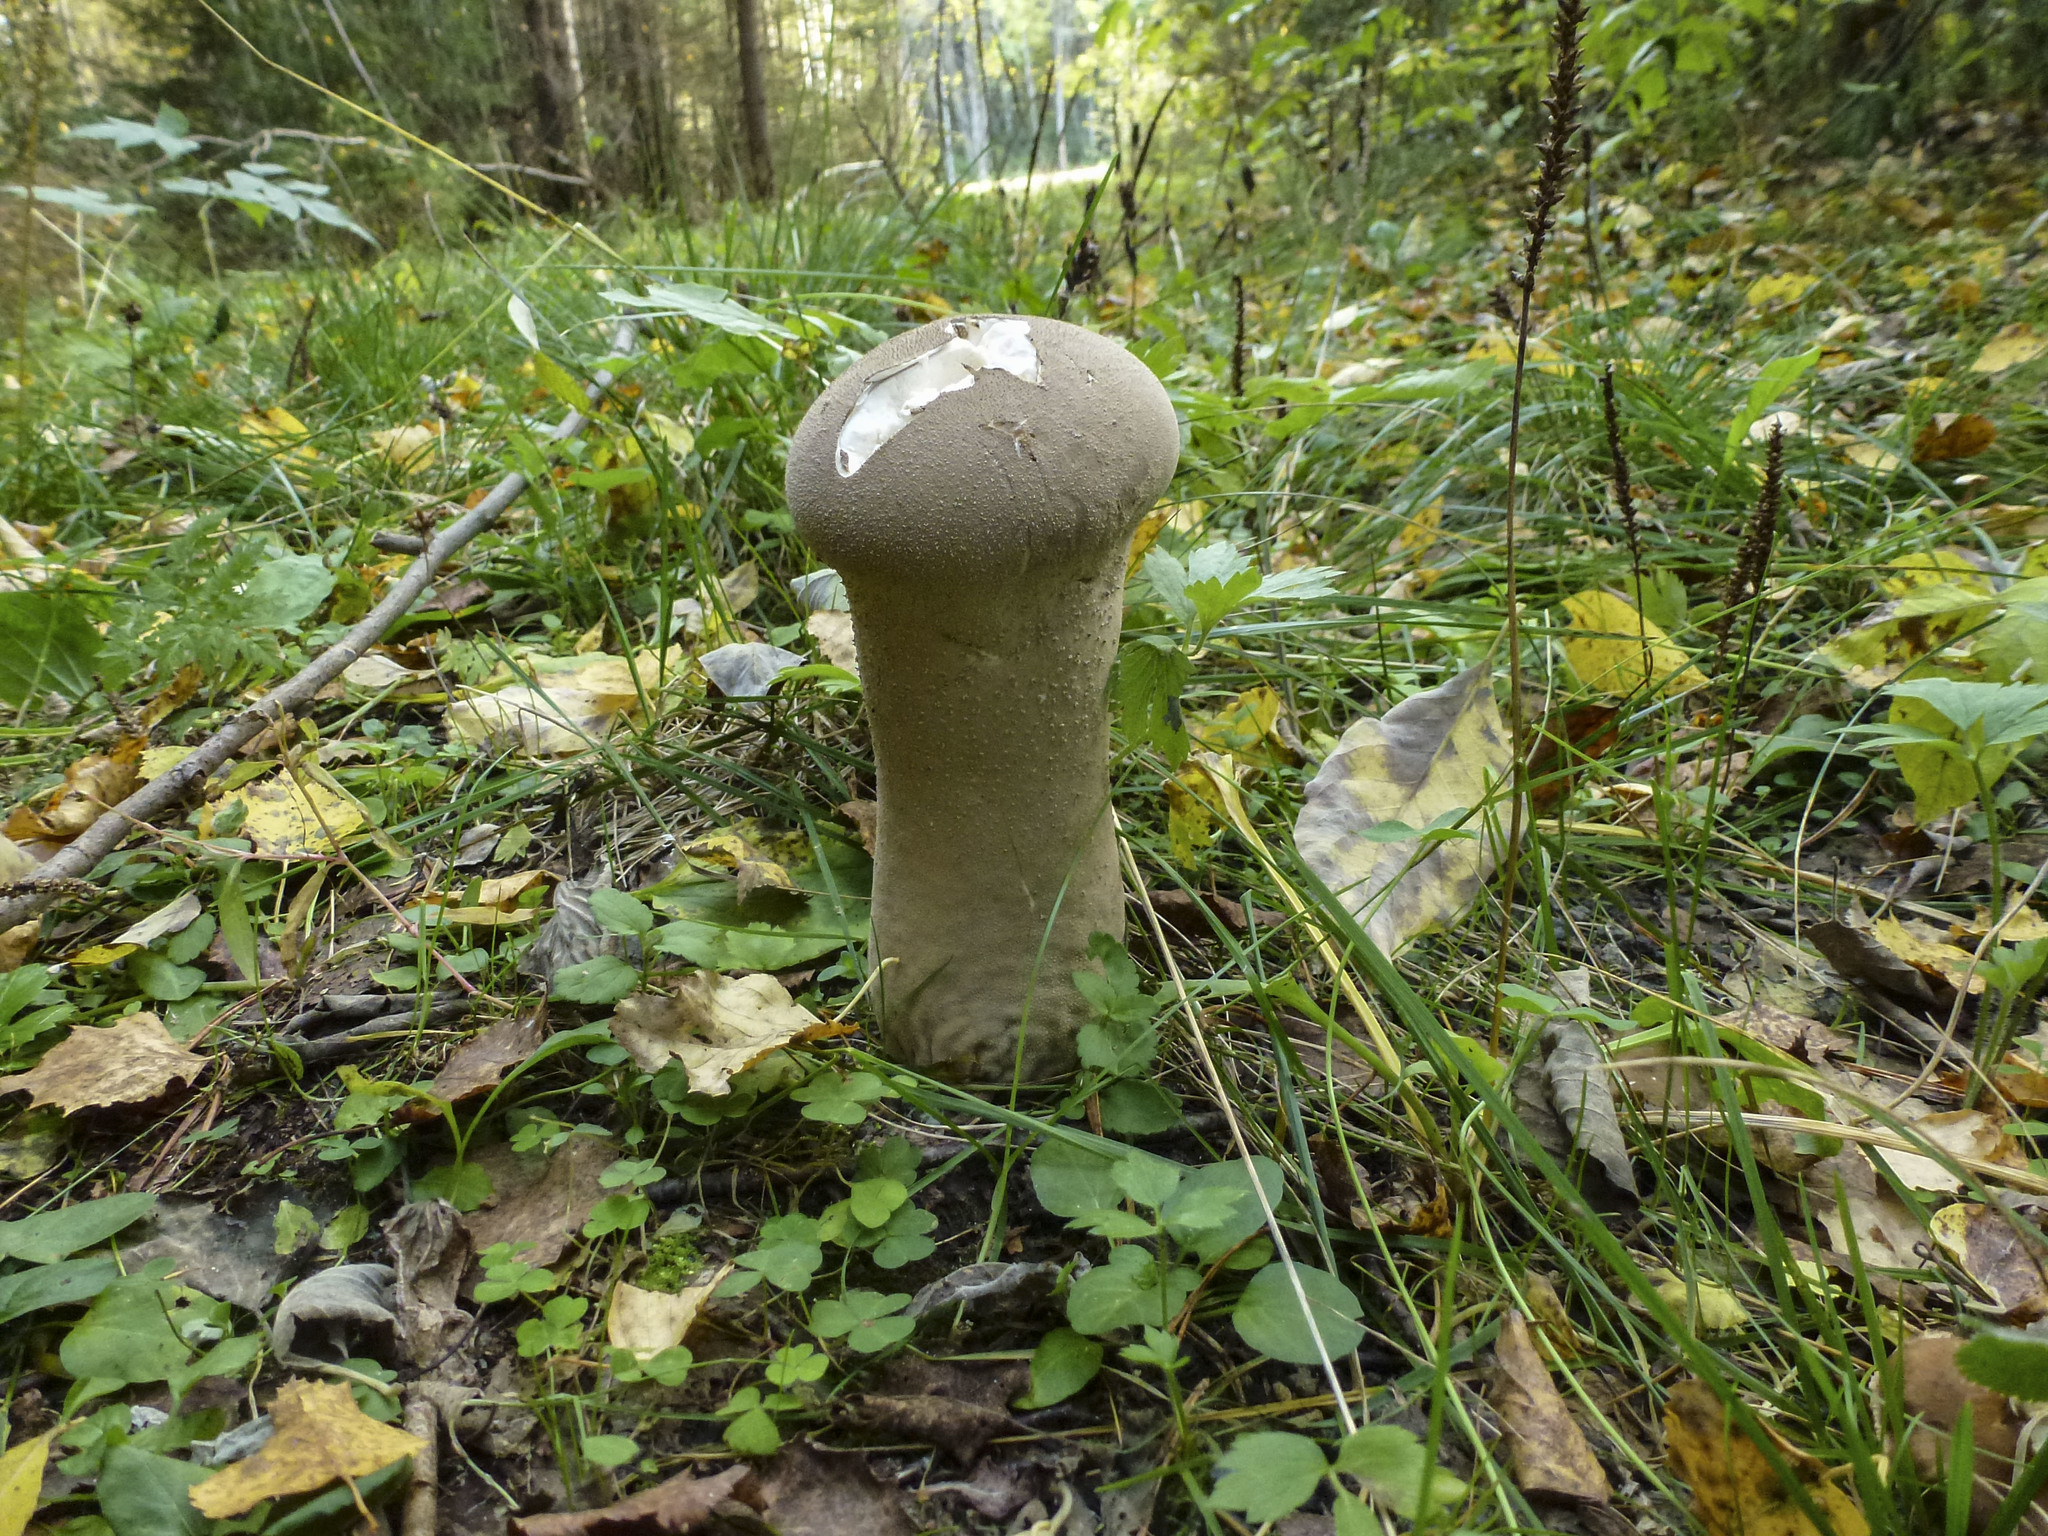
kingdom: Fungi
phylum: Basidiomycota
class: Agaricomycetes
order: Agaricales
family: Lycoperdaceae
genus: Lycoperdon
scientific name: Lycoperdon excipuliforme
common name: Pestle puffball
